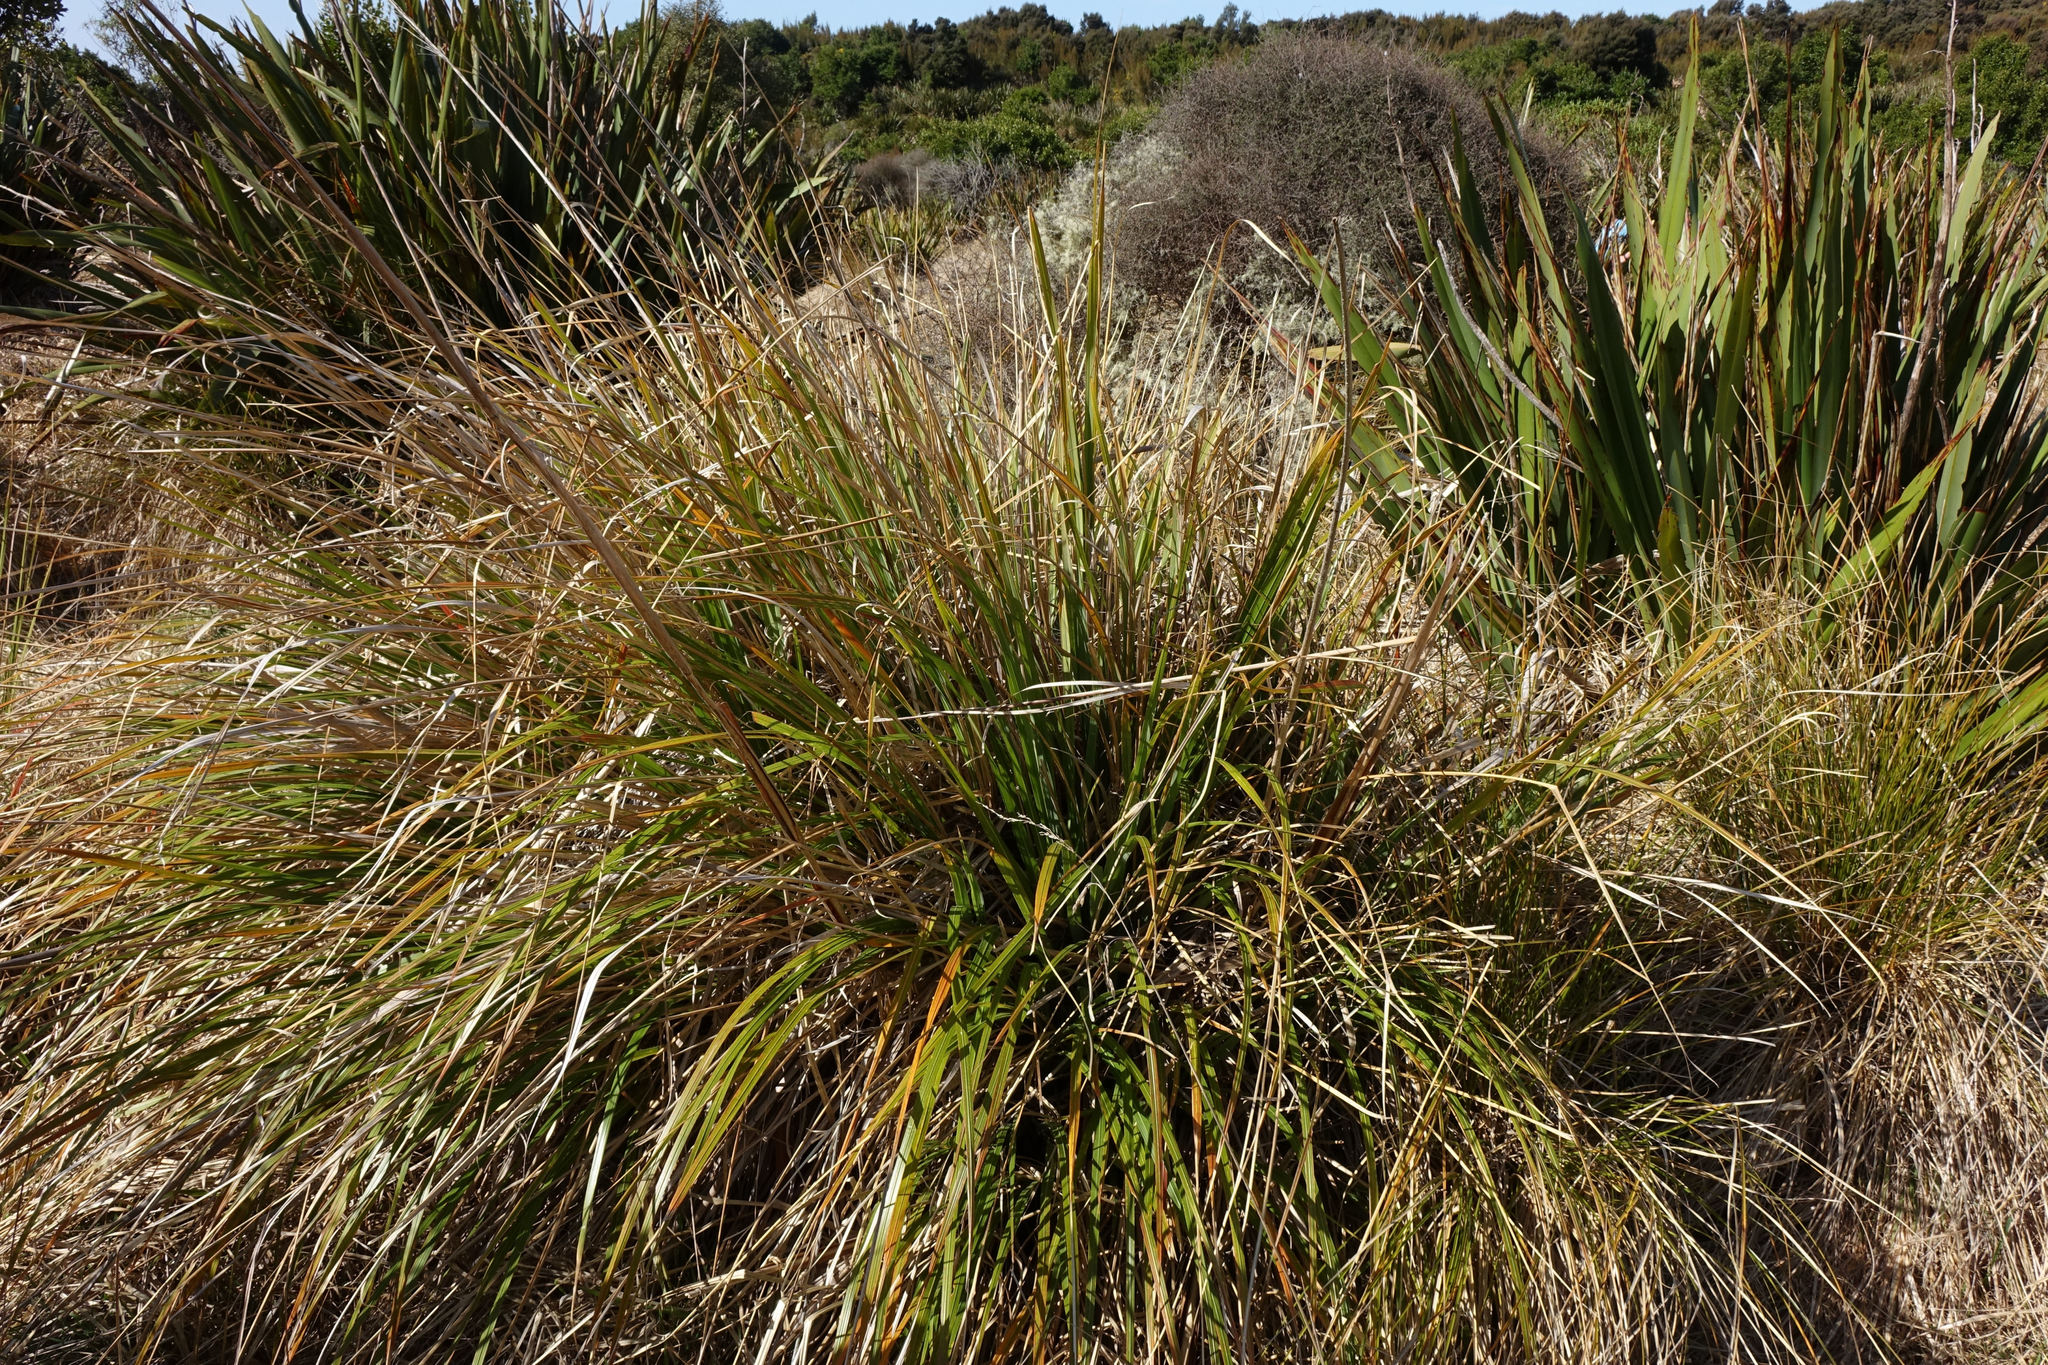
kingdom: Plantae
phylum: Tracheophyta
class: Liliopsida
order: Poales
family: Poaceae
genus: Chionochloa
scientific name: Chionochloa conspicua
